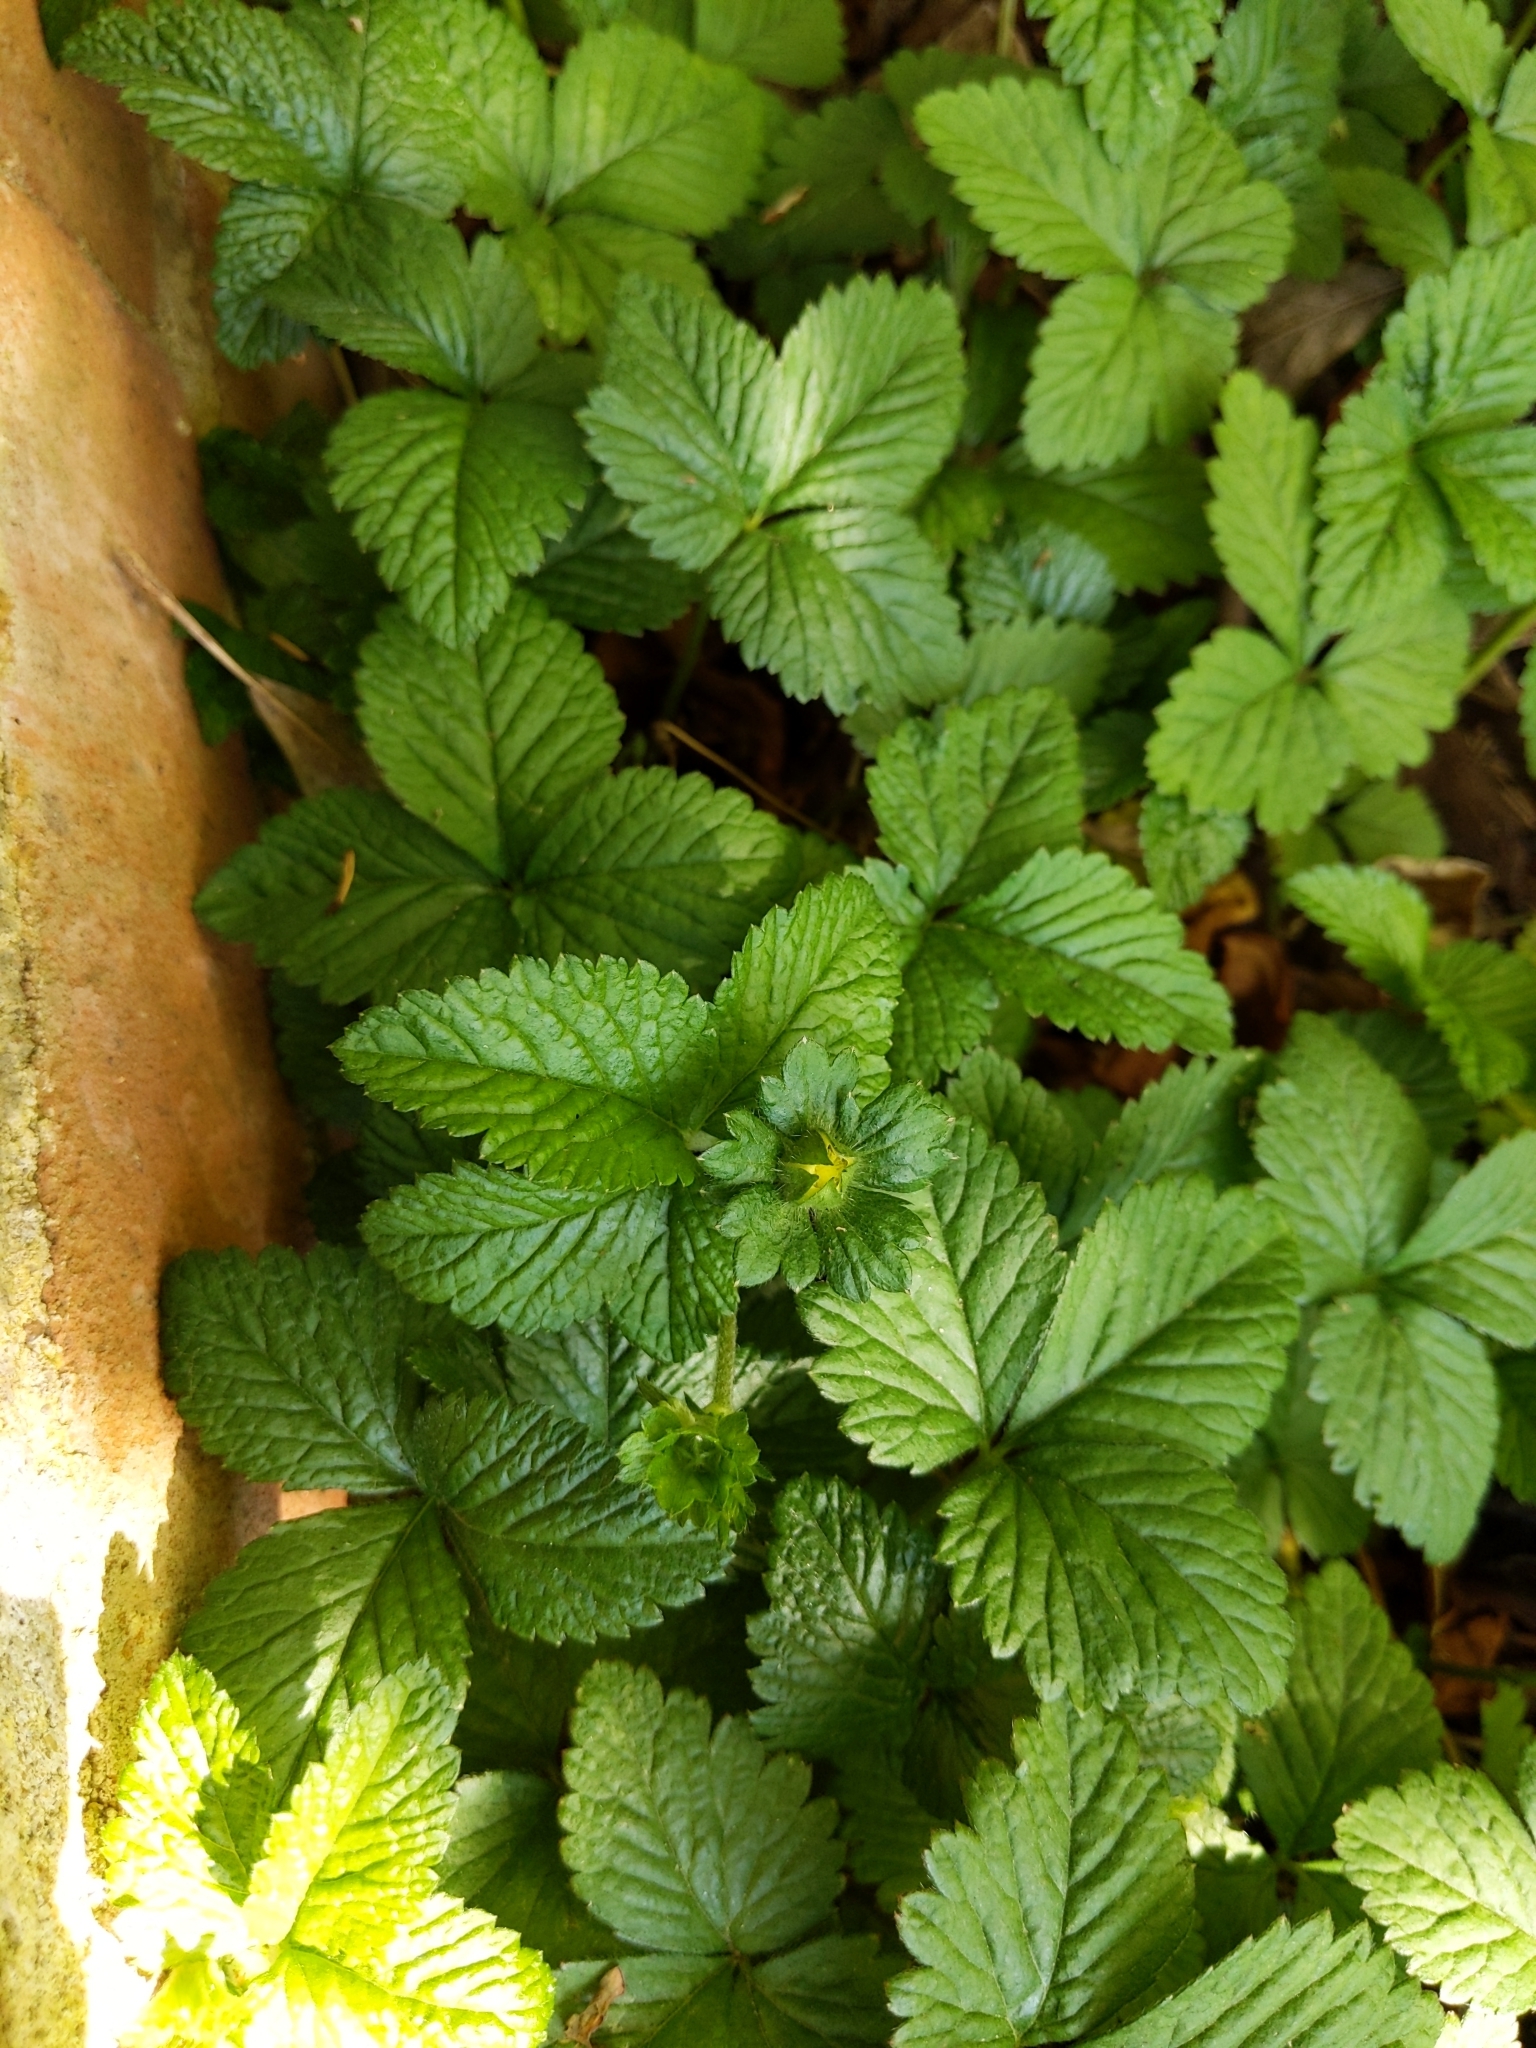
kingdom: Plantae
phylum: Tracheophyta
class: Magnoliopsida
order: Rosales
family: Rosaceae
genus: Potentilla
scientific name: Potentilla indica
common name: Yellow-flowered strawberry
